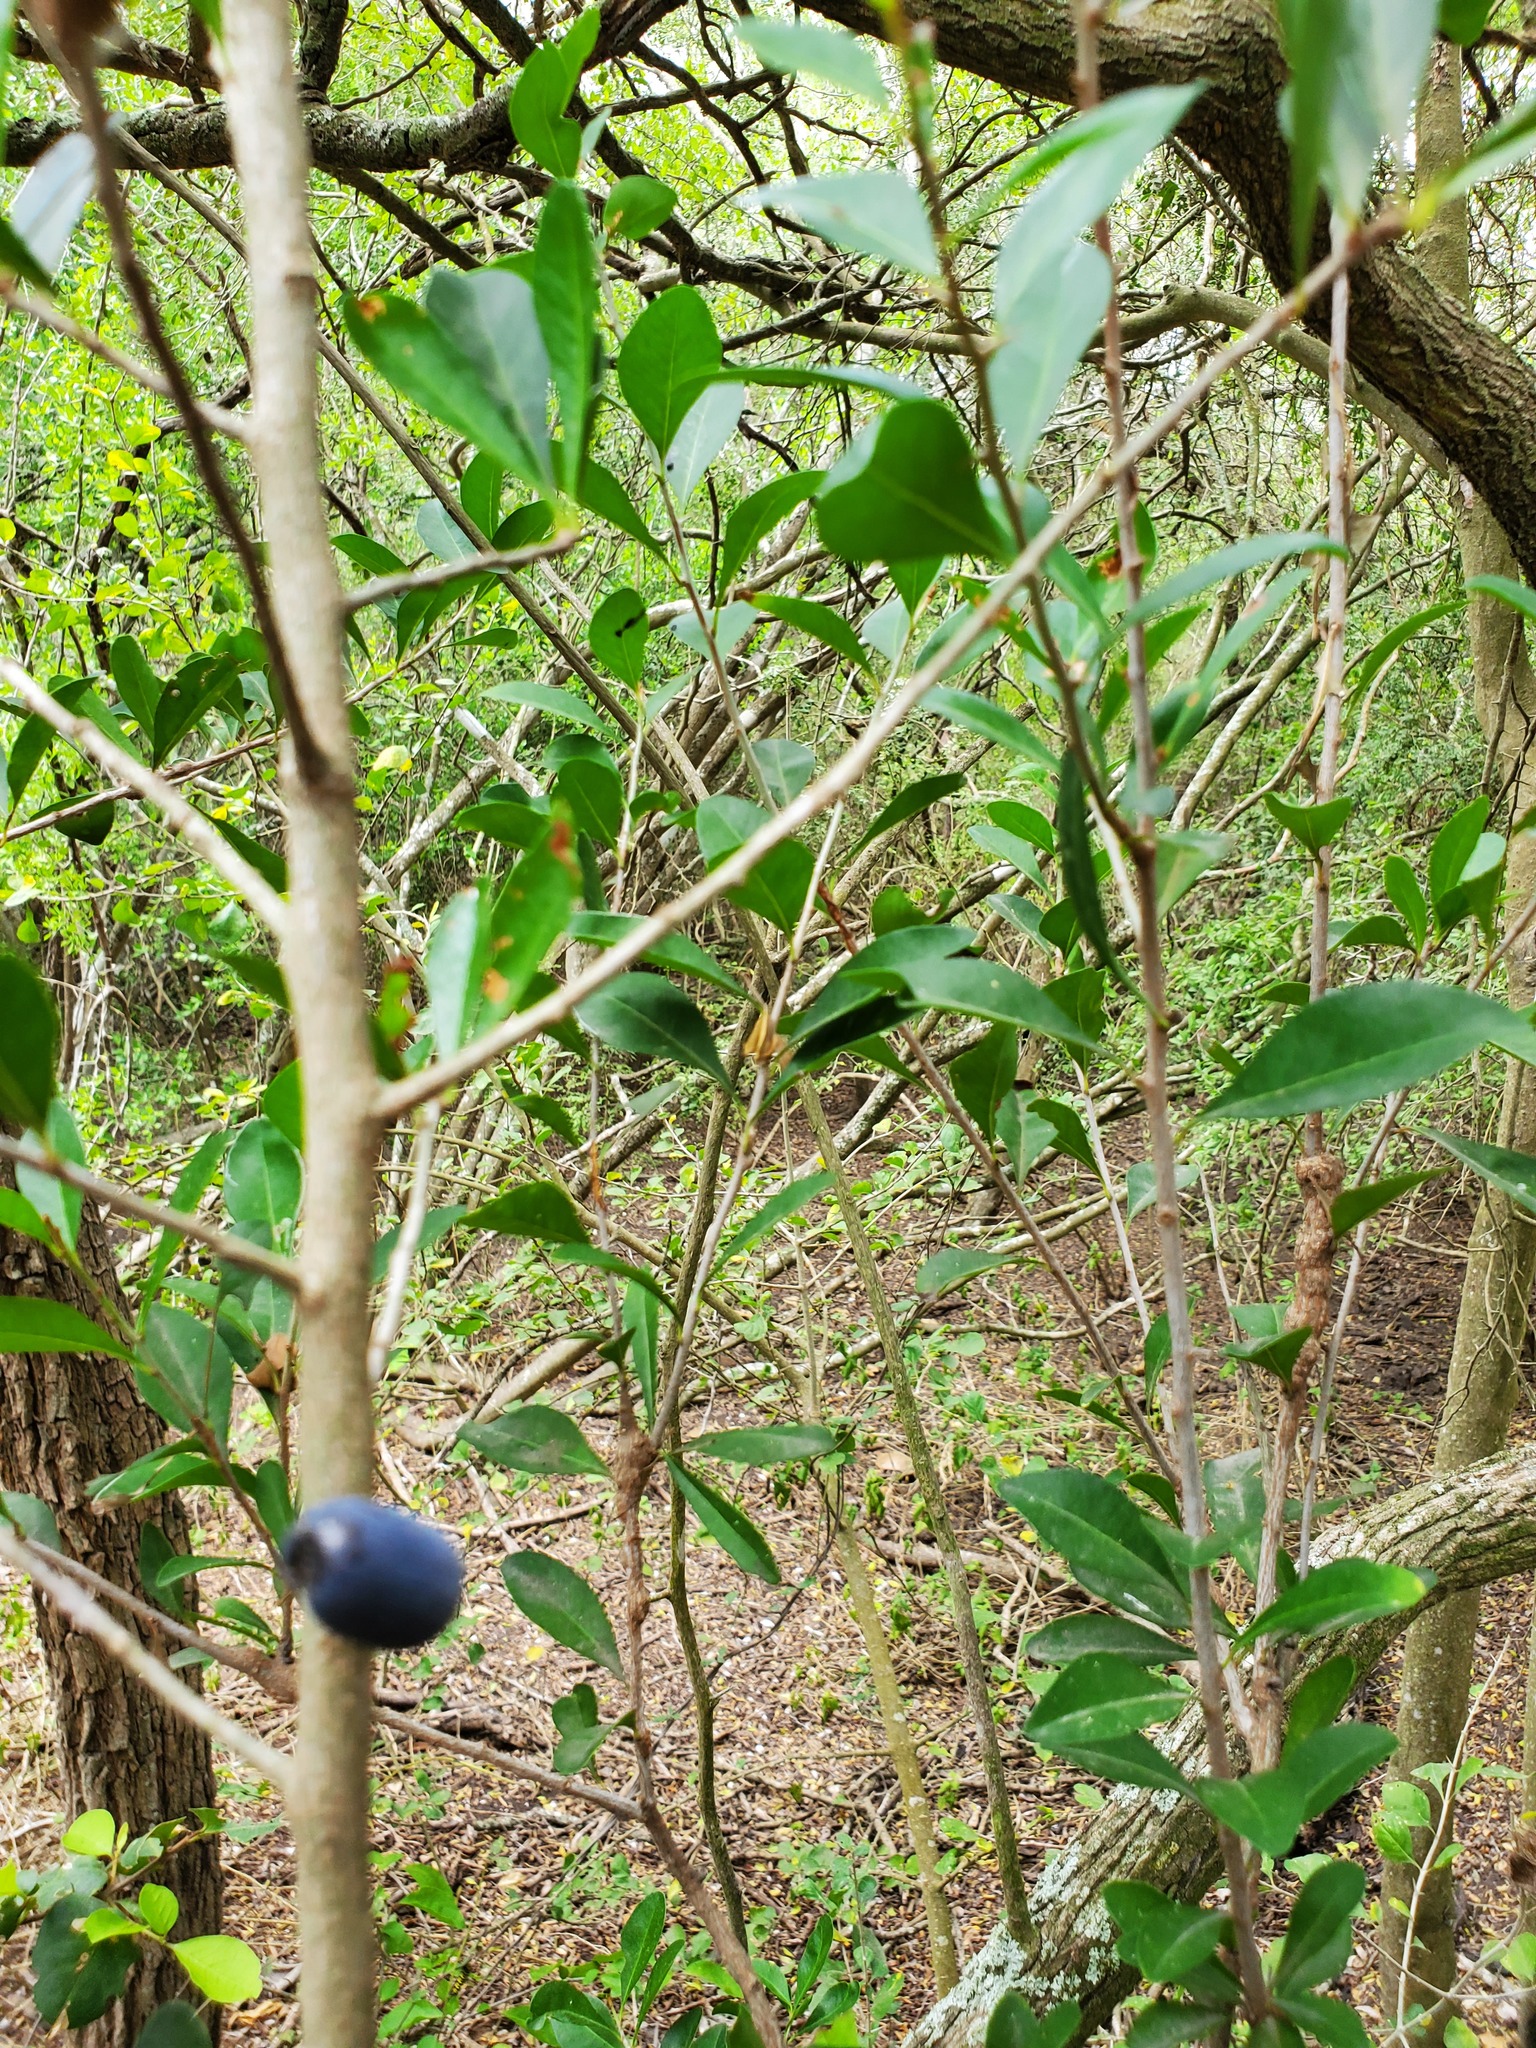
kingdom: Plantae
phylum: Tracheophyta
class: Magnoliopsida
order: Ericales
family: Sapotaceae
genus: Sideroxylon
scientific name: Sideroxylon celastrinum
